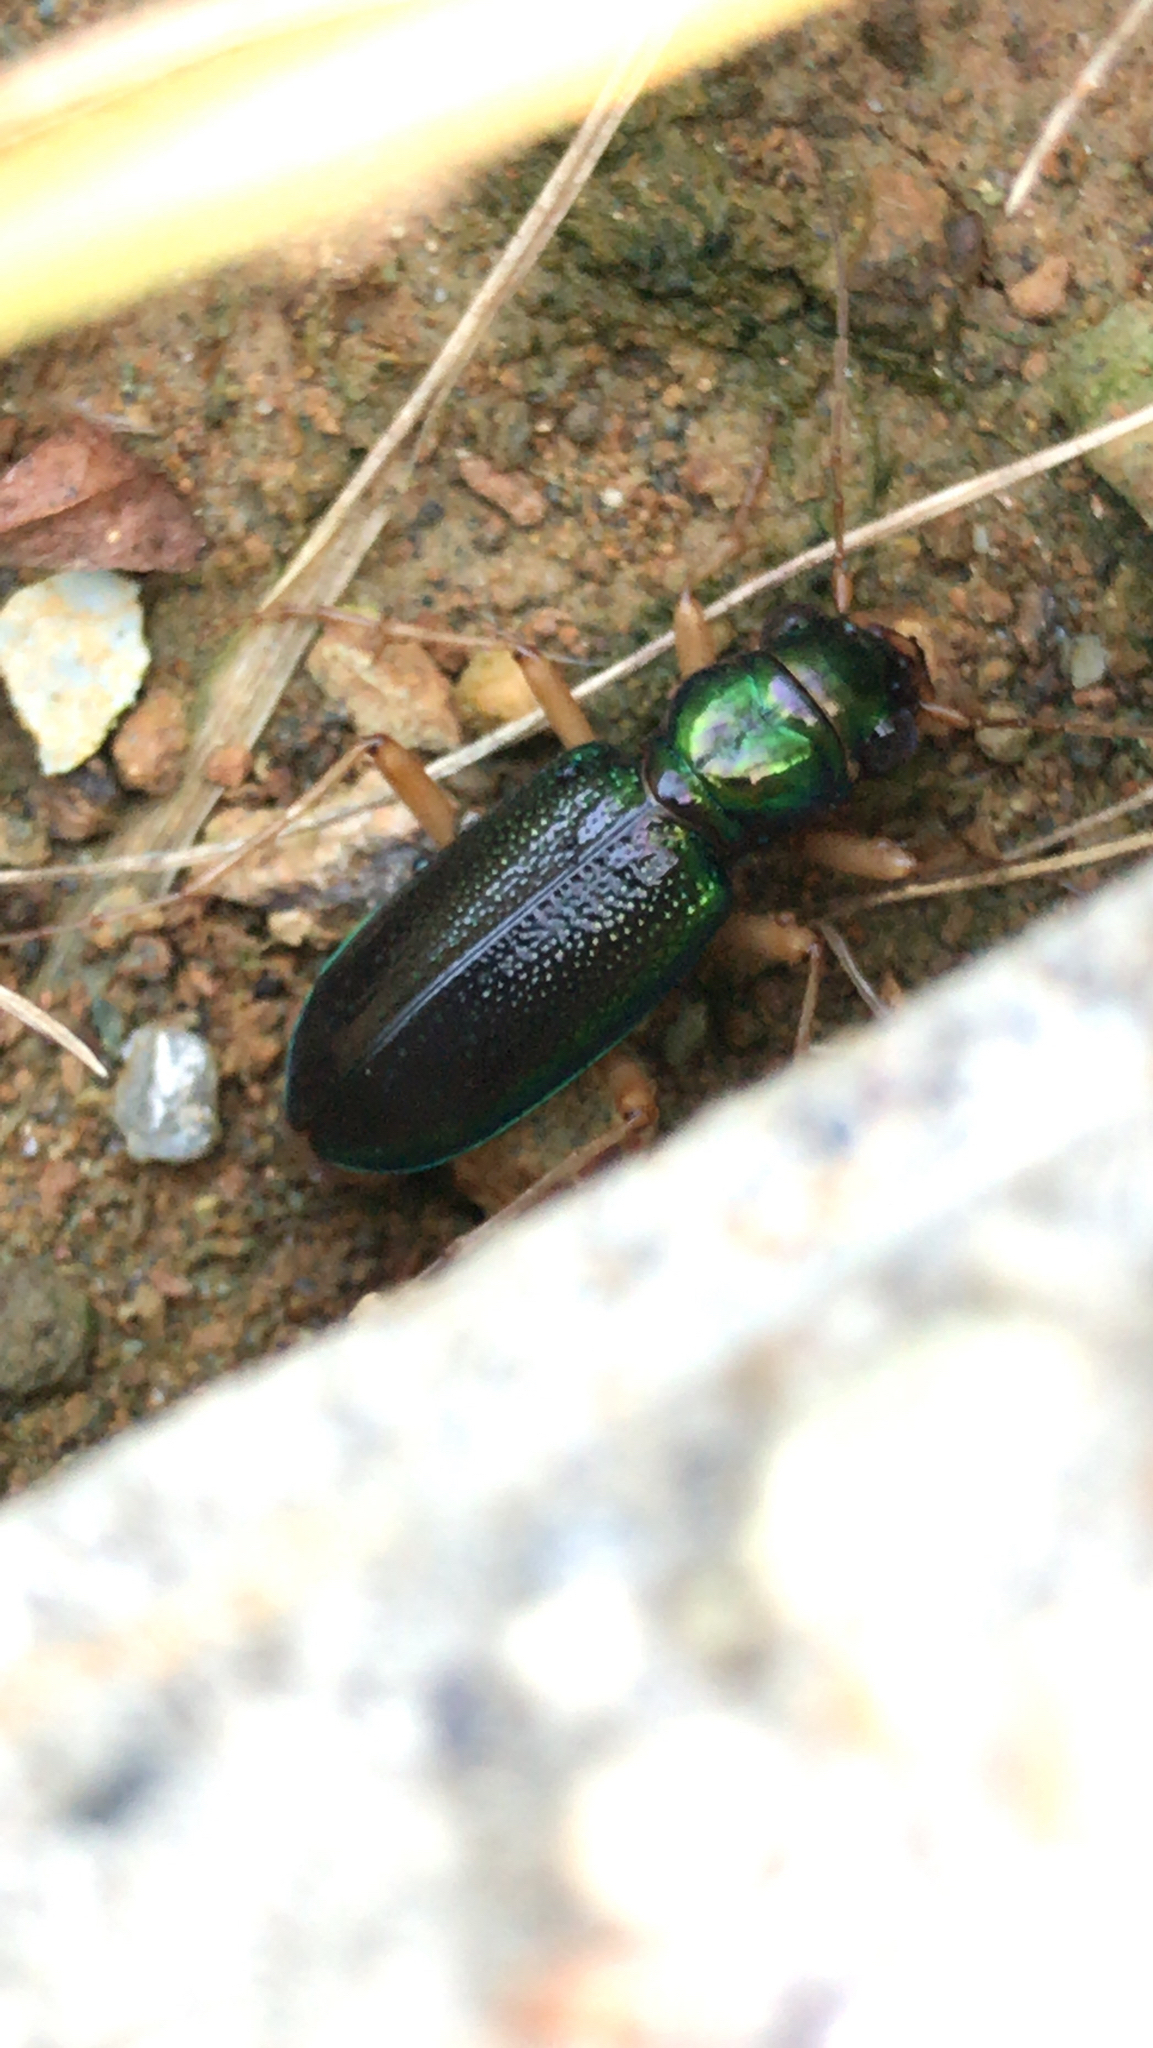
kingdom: Animalia
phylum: Arthropoda
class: Insecta
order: Coleoptera
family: Carabidae
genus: Tetracha
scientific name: Tetracha virginica
